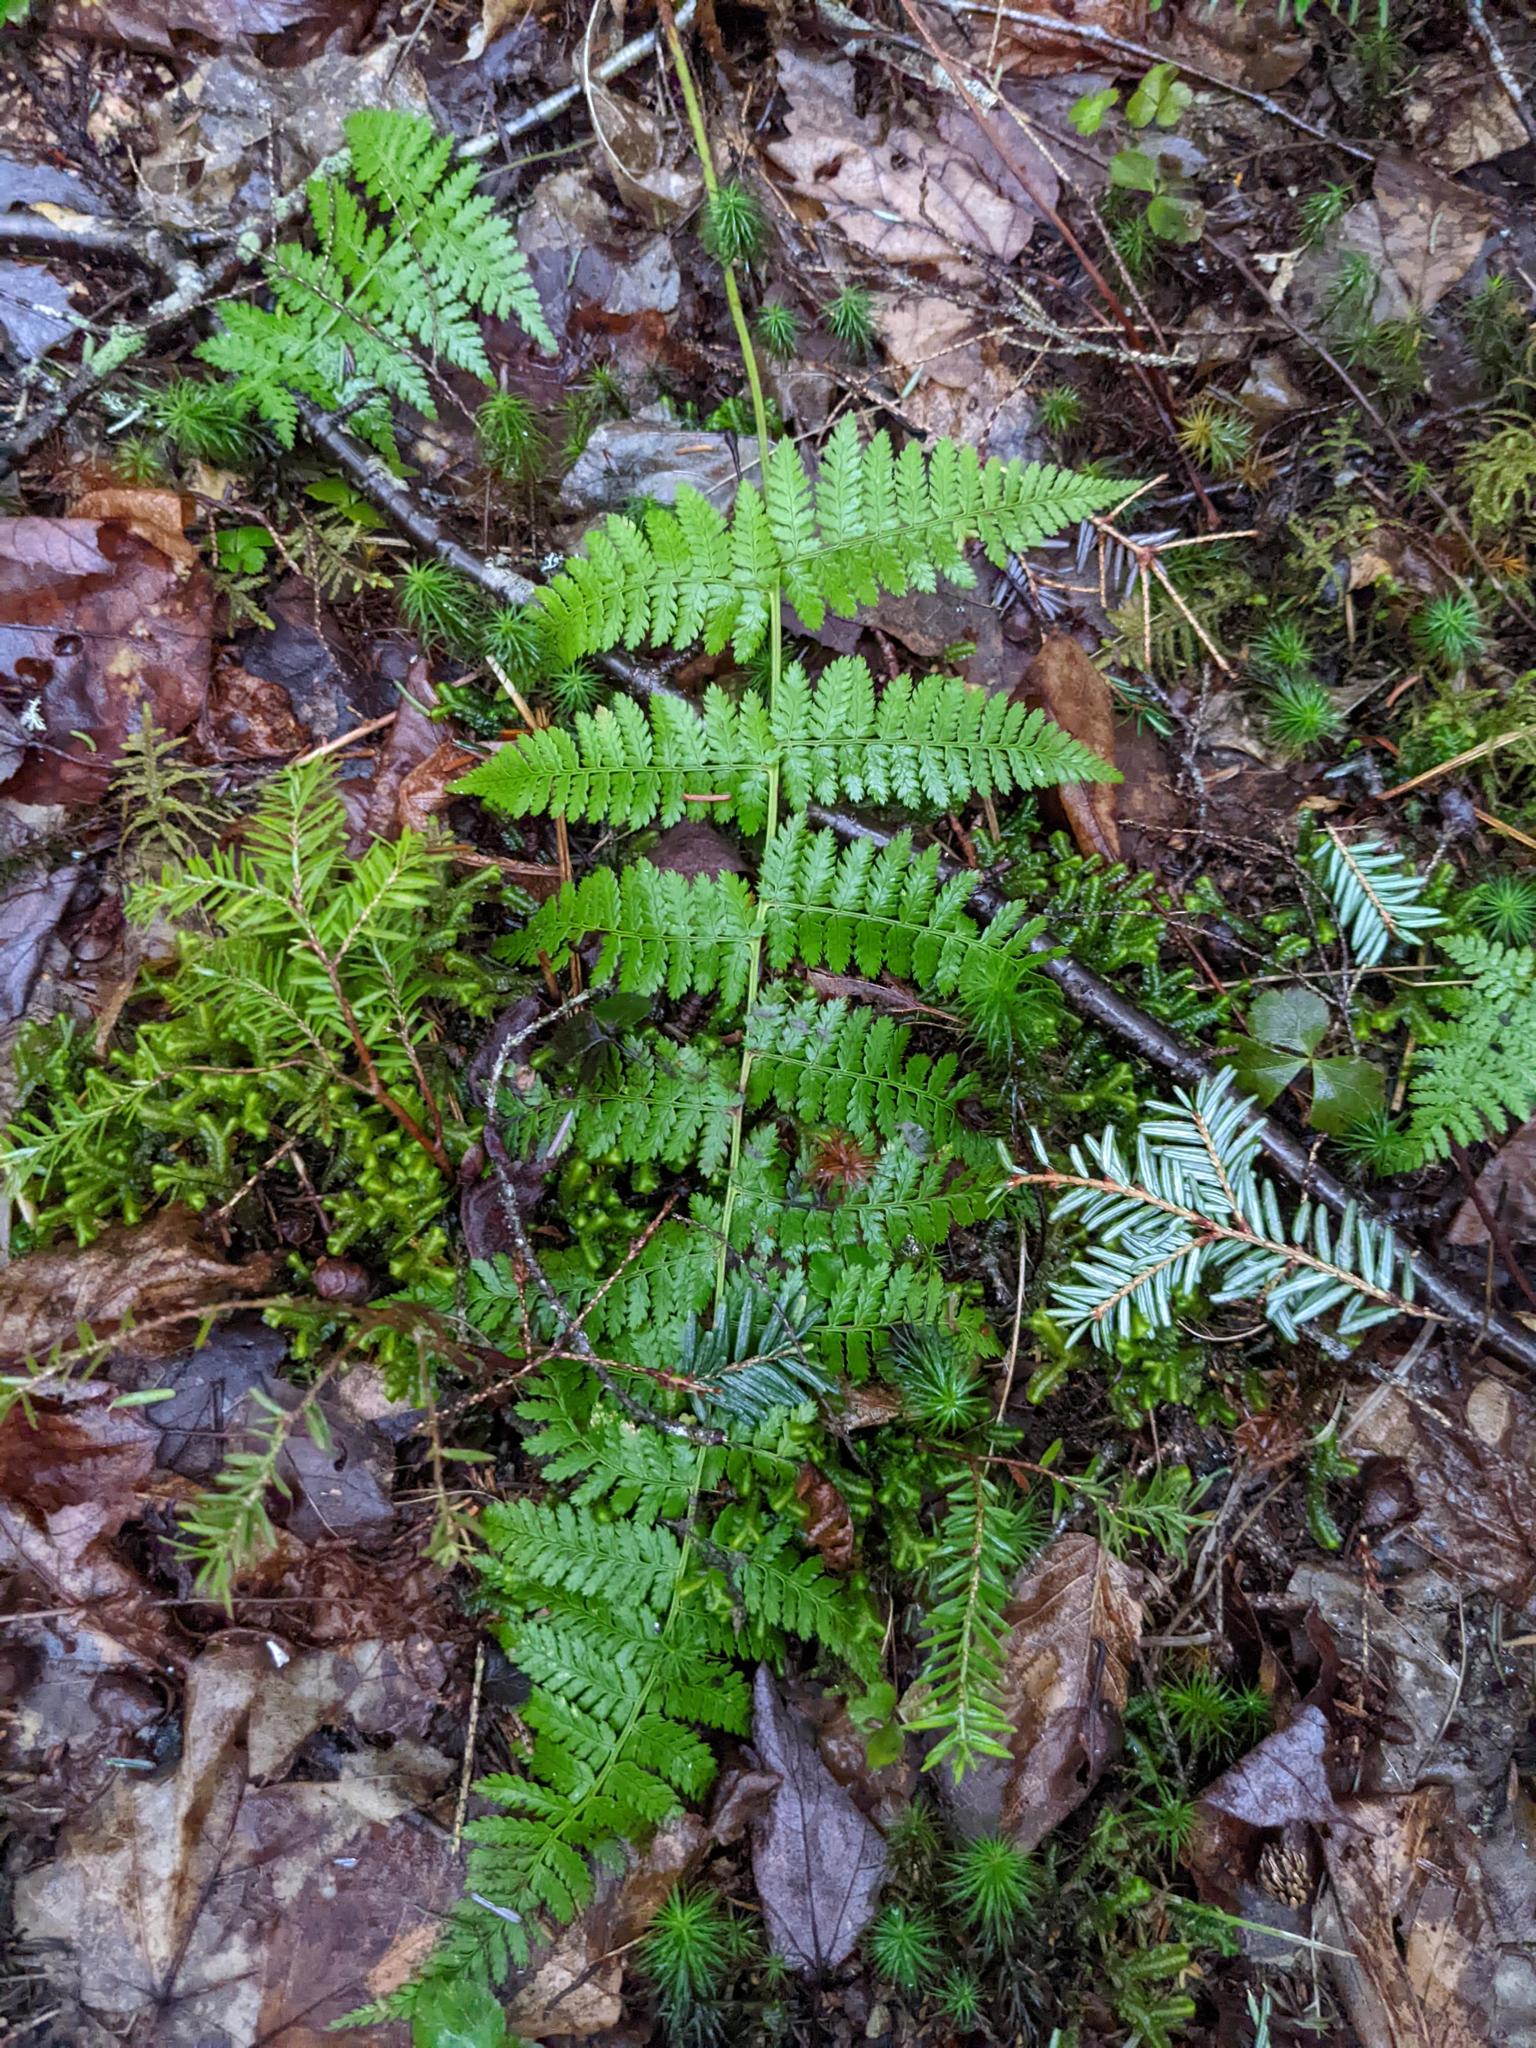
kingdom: Plantae
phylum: Tracheophyta
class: Polypodiopsida
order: Polypodiales
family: Dryopteridaceae
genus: Dryopteris
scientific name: Dryopteris intermedia
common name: Evergreen wood fern
